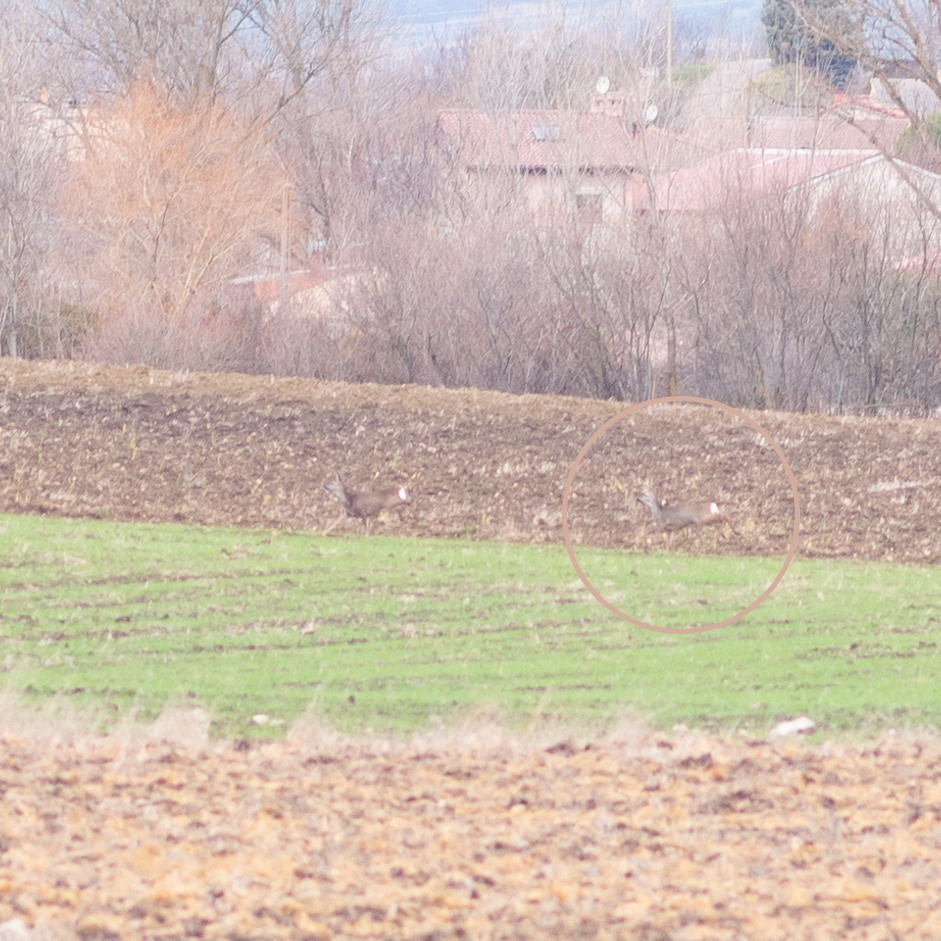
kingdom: Animalia
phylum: Chordata
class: Mammalia
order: Artiodactyla
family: Cervidae
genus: Capreolus
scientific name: Capreolus capreolus
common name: Western roe deer
